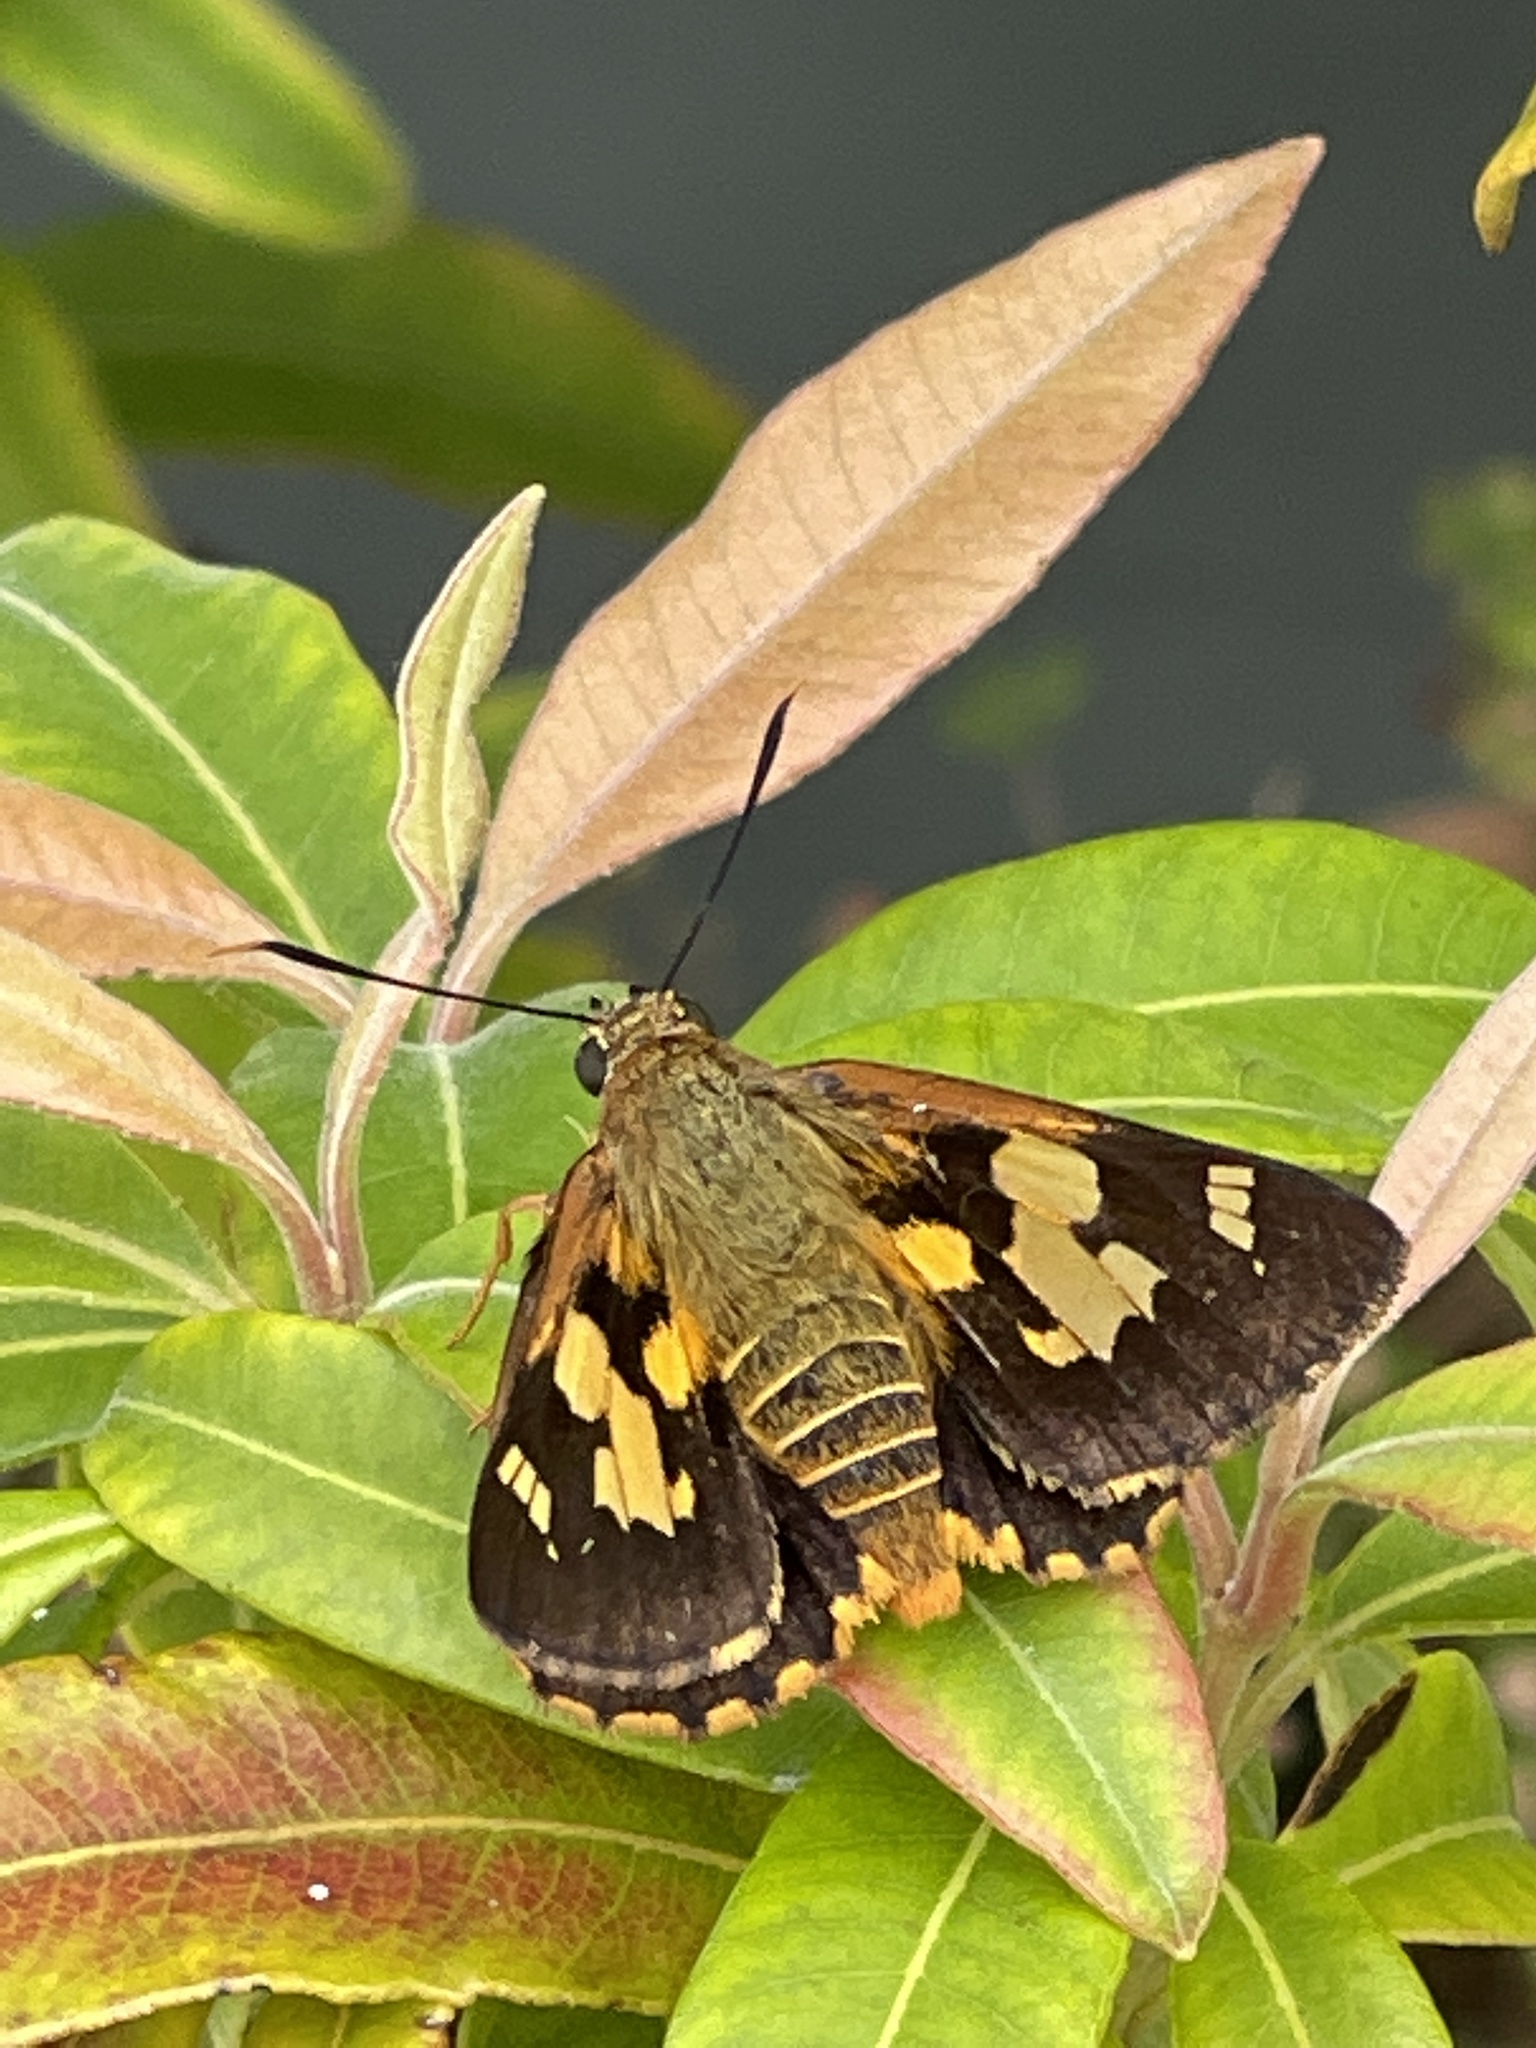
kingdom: Animalia
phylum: Arthropoda
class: Insecta
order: Lepidoptera
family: Hesperiidae
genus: Trapezites
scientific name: Trapezites symmomus
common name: Splendid ochre
